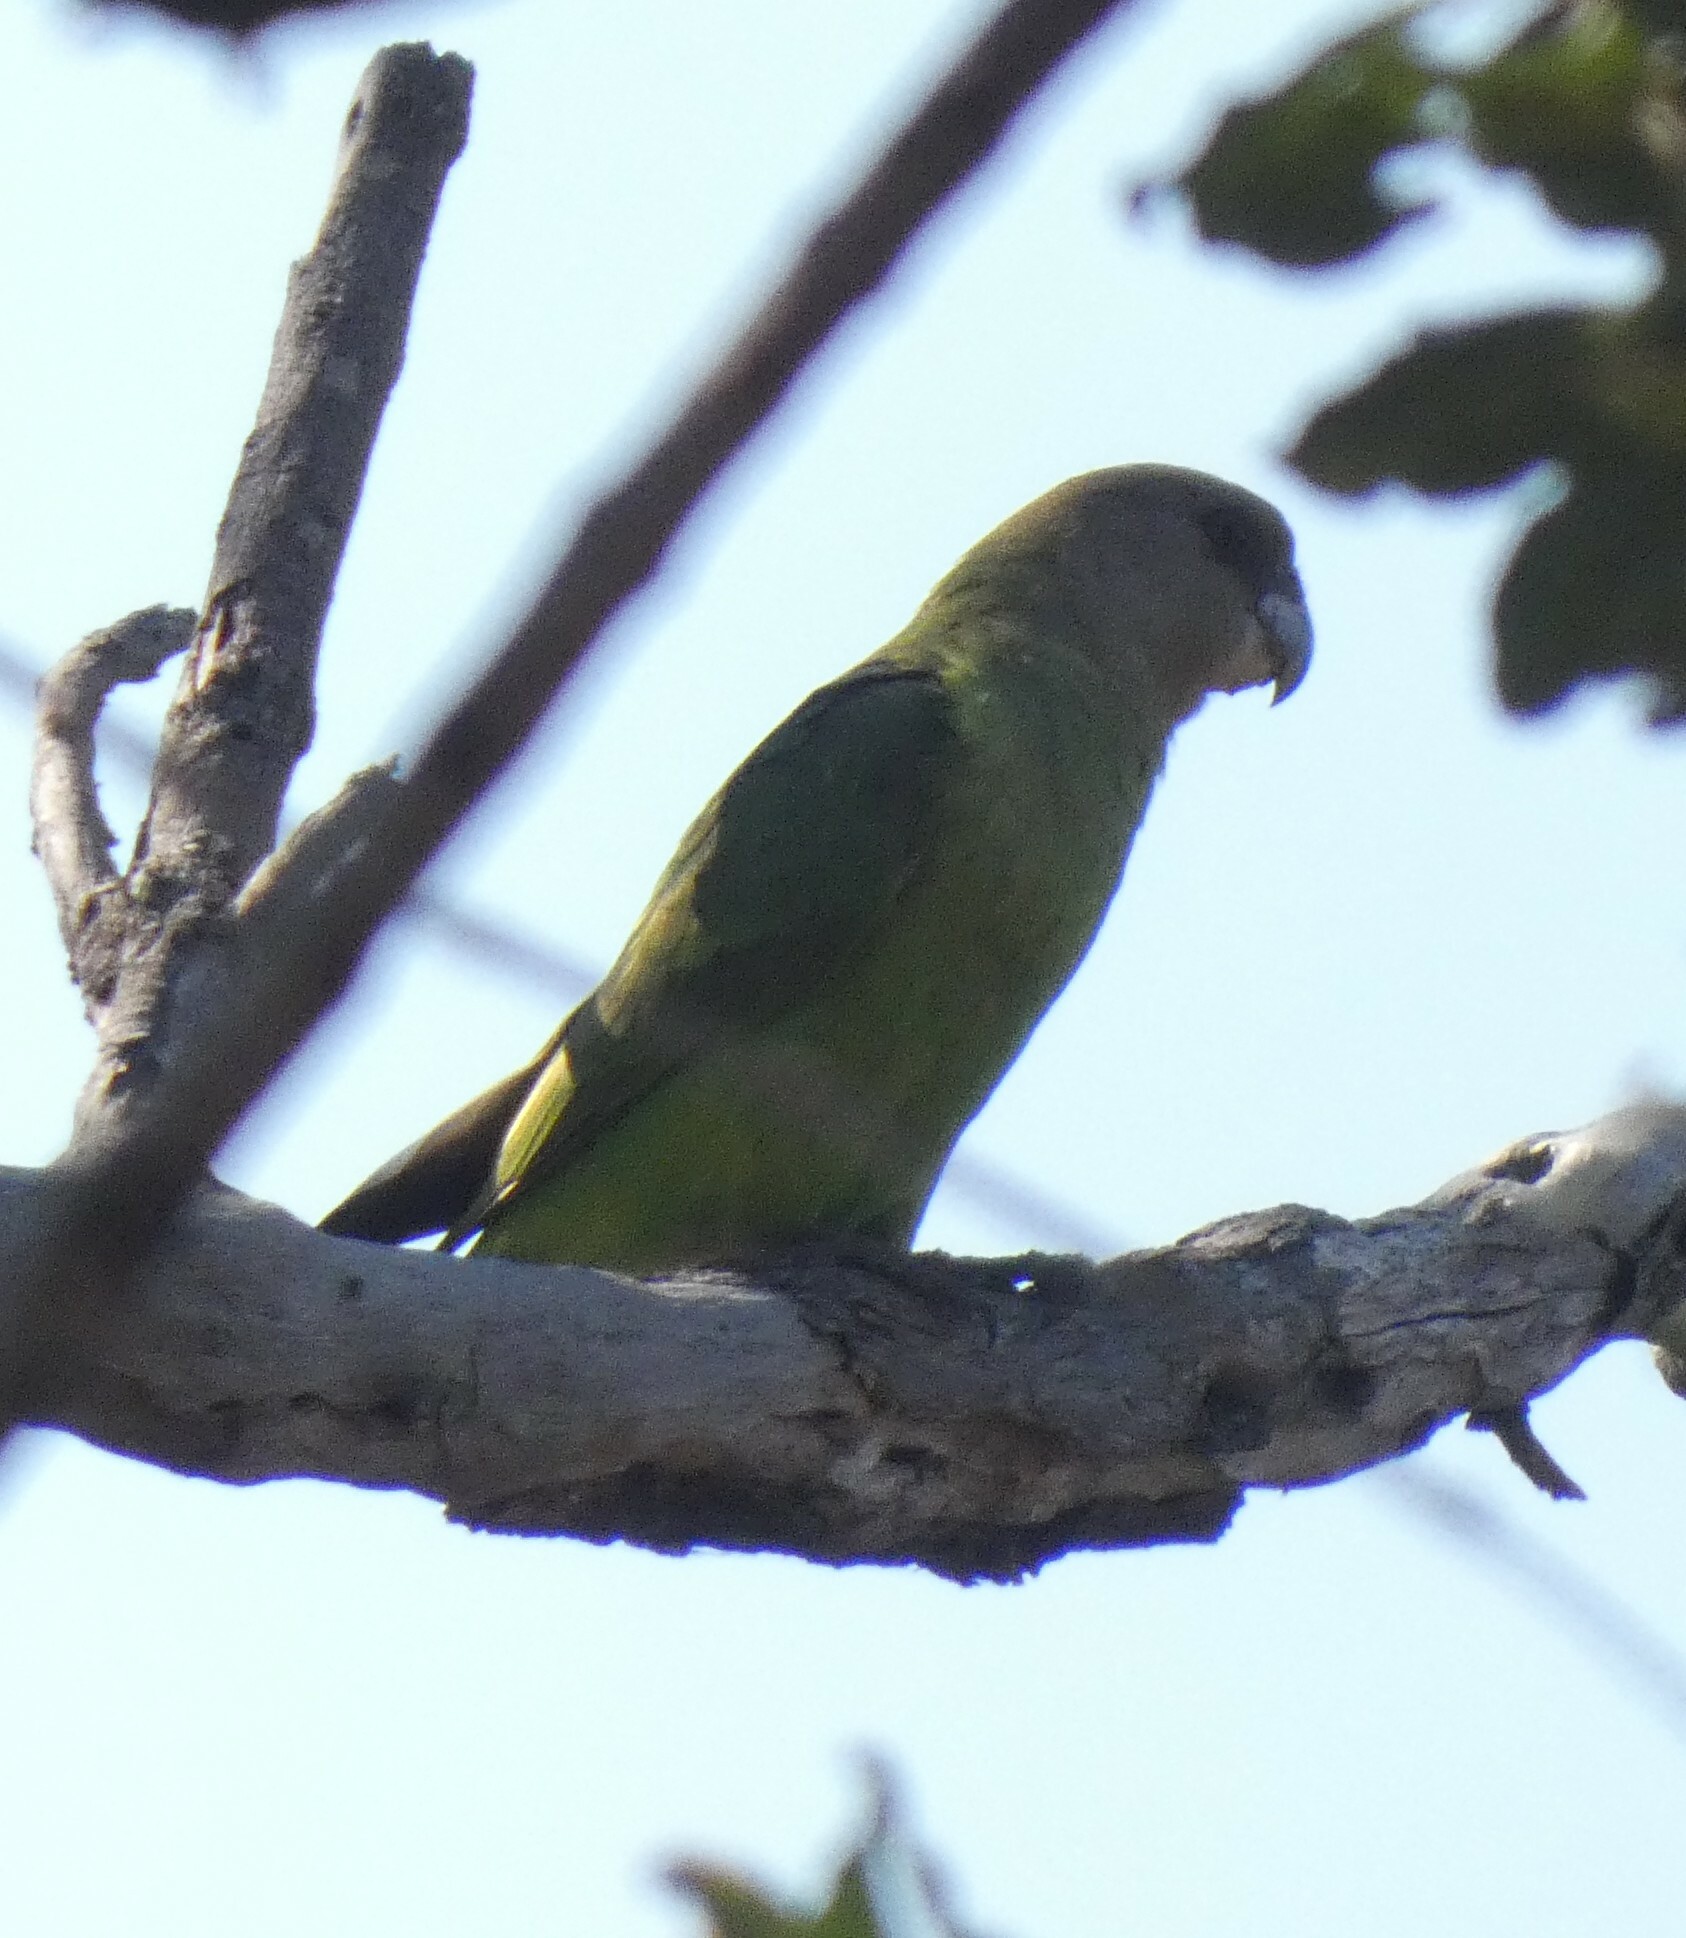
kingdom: Animalia
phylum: Chordata
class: Aves
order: Psittaciformes
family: Psittacidae
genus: Poicephalus
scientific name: Poicephalus cryptoxanthus
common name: Brown-headed parrot
